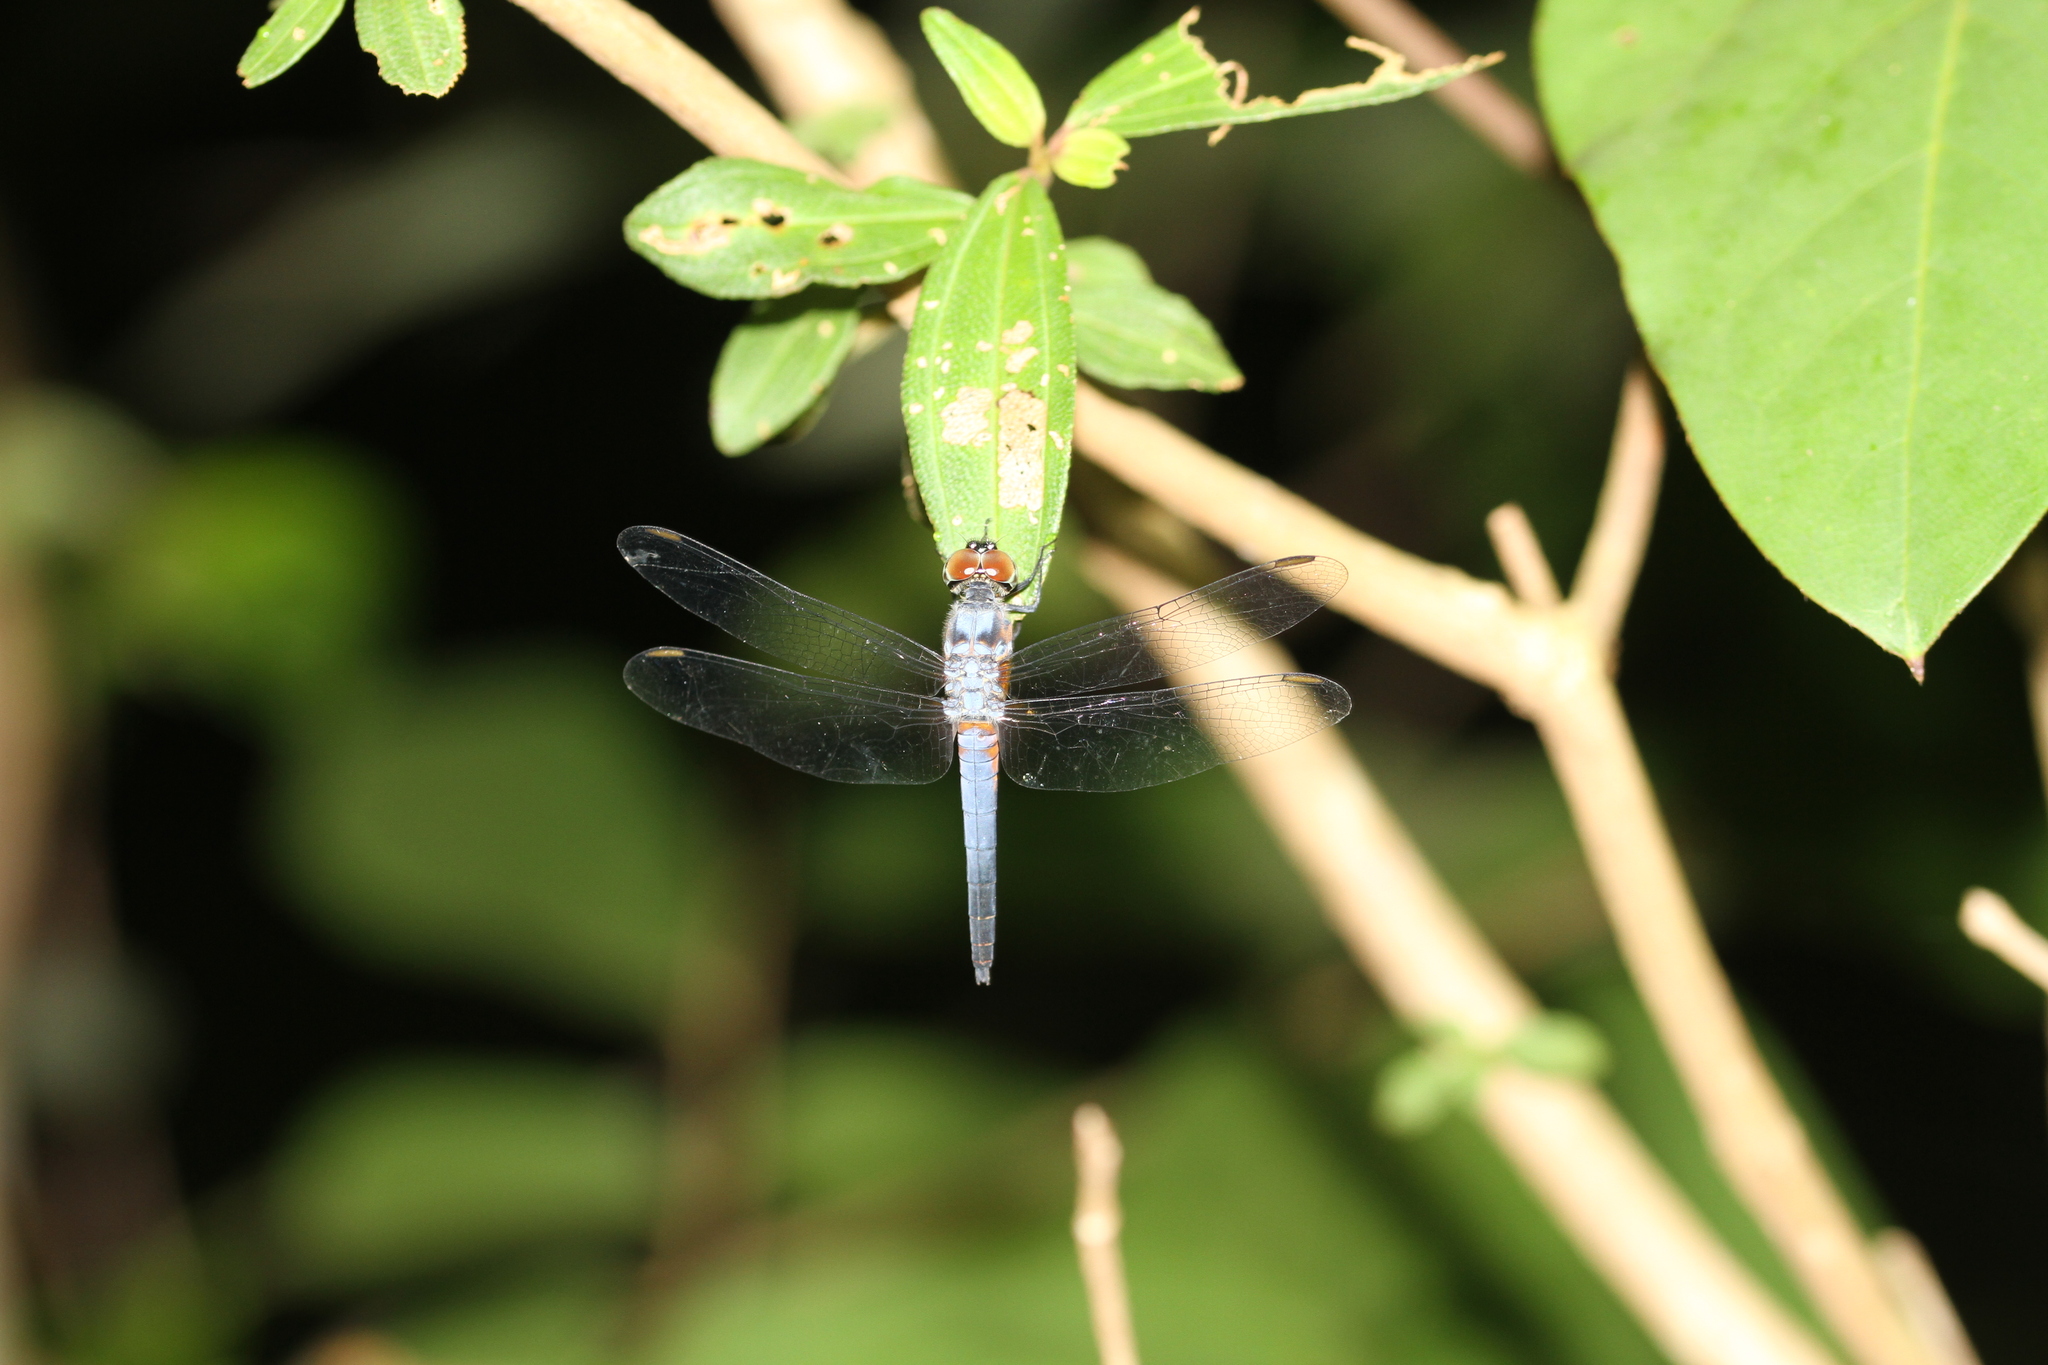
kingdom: Animalia
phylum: Arthropoda
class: Insecta
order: Odonata
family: Libellulidae
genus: Brachydiplax
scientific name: Brachydiplax chalybea
